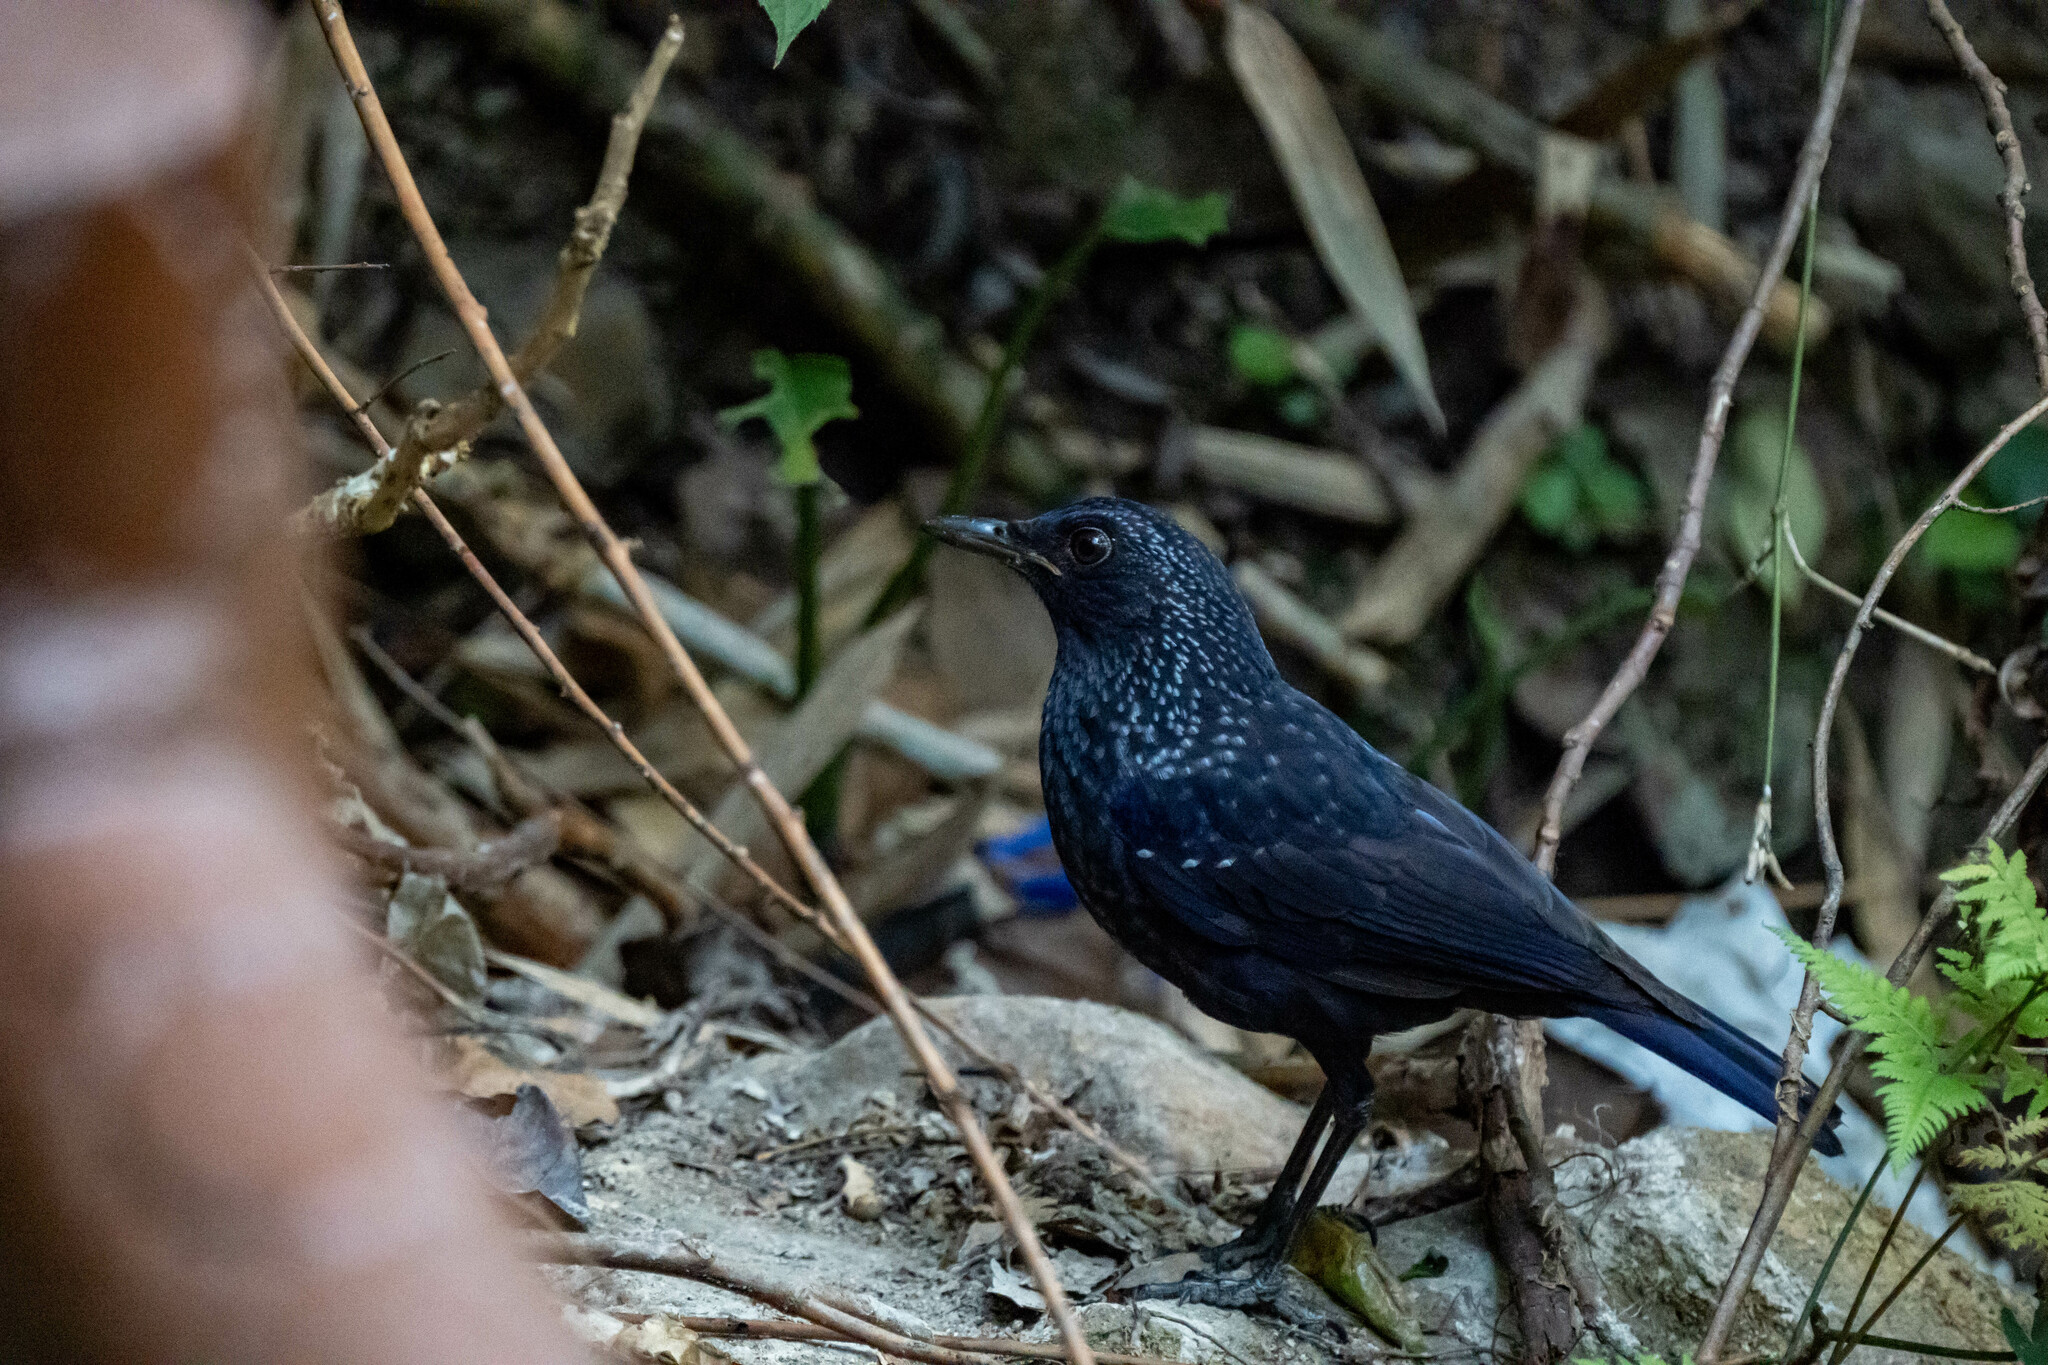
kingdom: Animalia
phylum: Chordata
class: Aves
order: Passeriformes
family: Muscicapidae
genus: Myophonus
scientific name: Myophonus caeruleus
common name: Blue whistling-thrush
